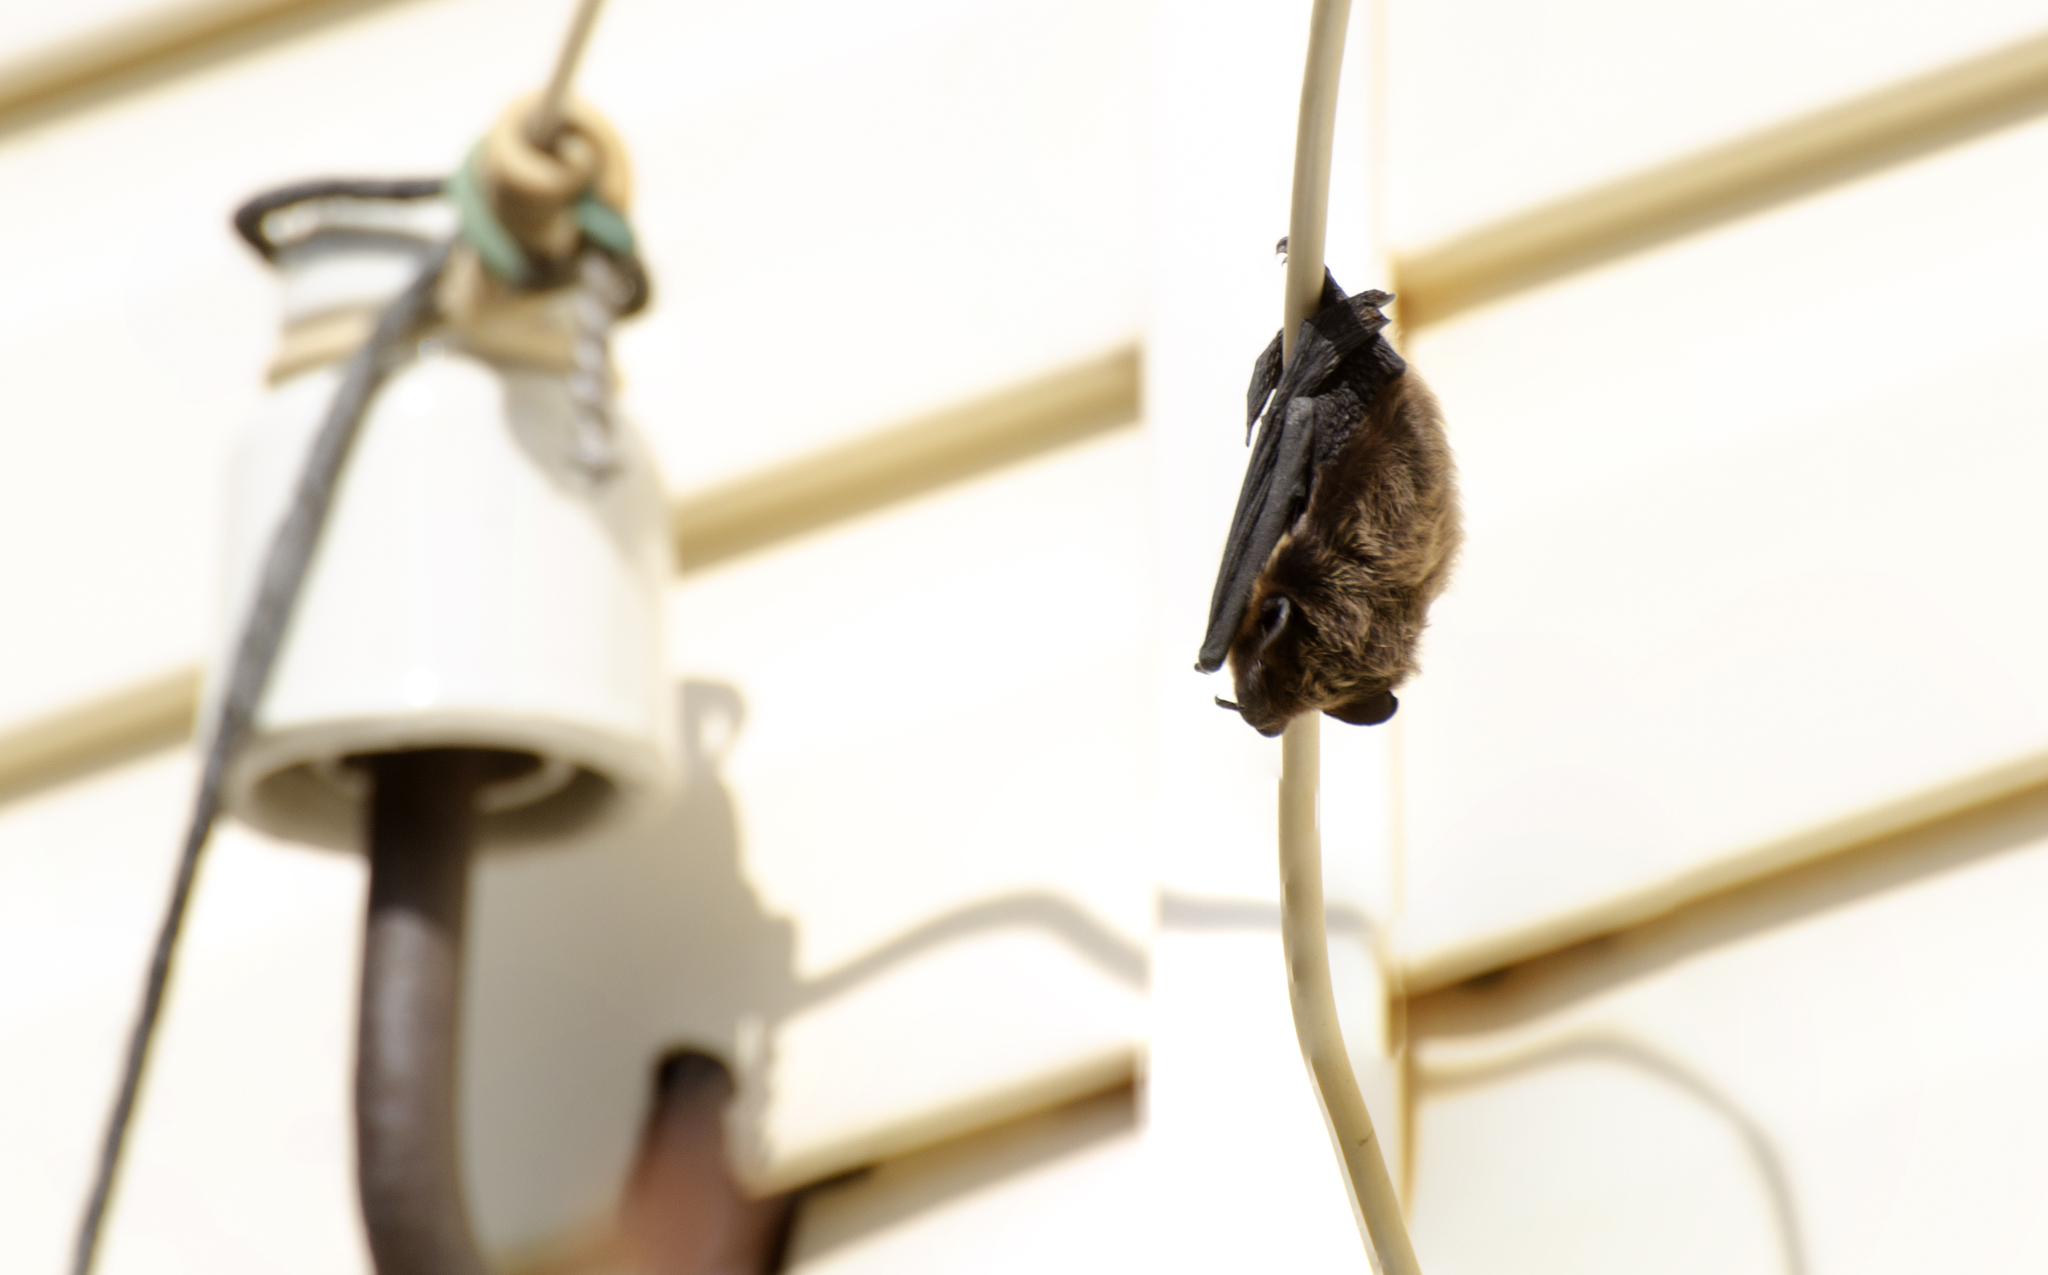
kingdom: Animalia
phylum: Chordata
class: Mammalia
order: Chiroptera
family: Vespertilionidae
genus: Eptesicus
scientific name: Eptesicus nilssonii
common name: Northern bat
